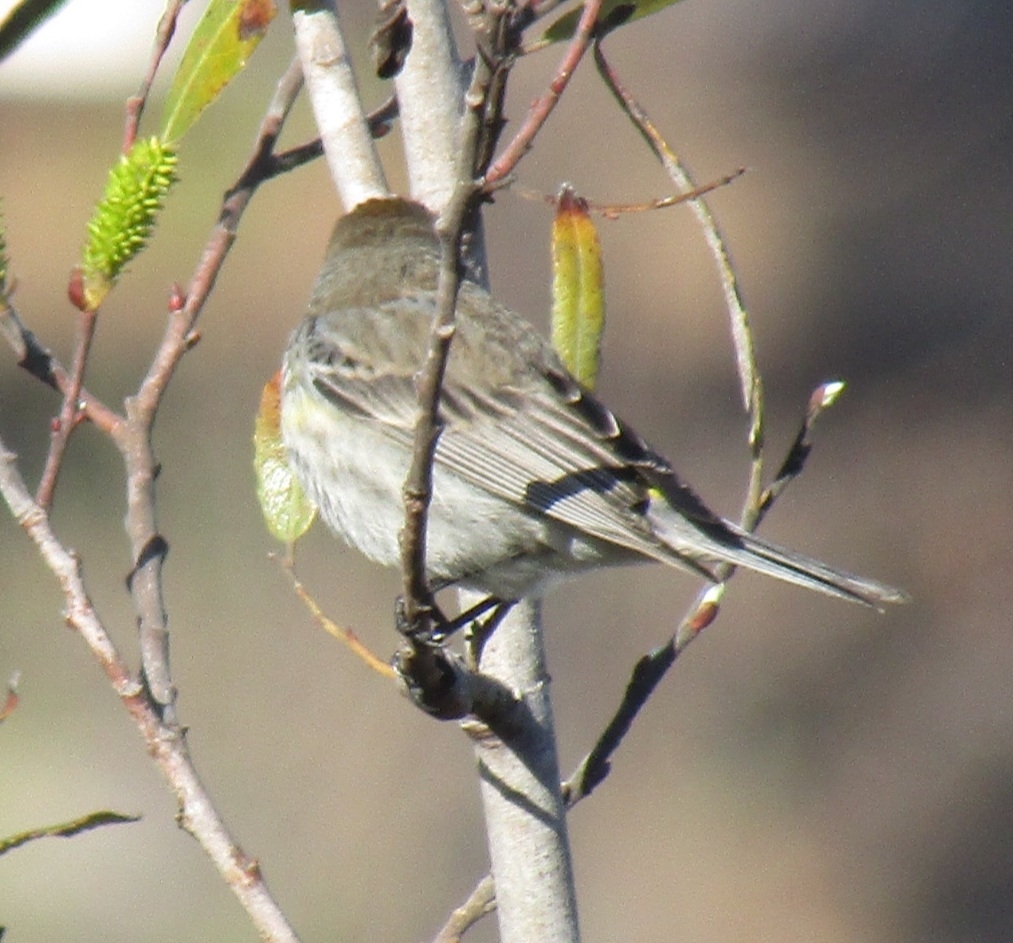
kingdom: Animalia
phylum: Chordata
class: Aves
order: Passeriformes
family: Parulidae
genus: Setophaga
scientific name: Setophaga coronata
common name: Myrtle warbler
